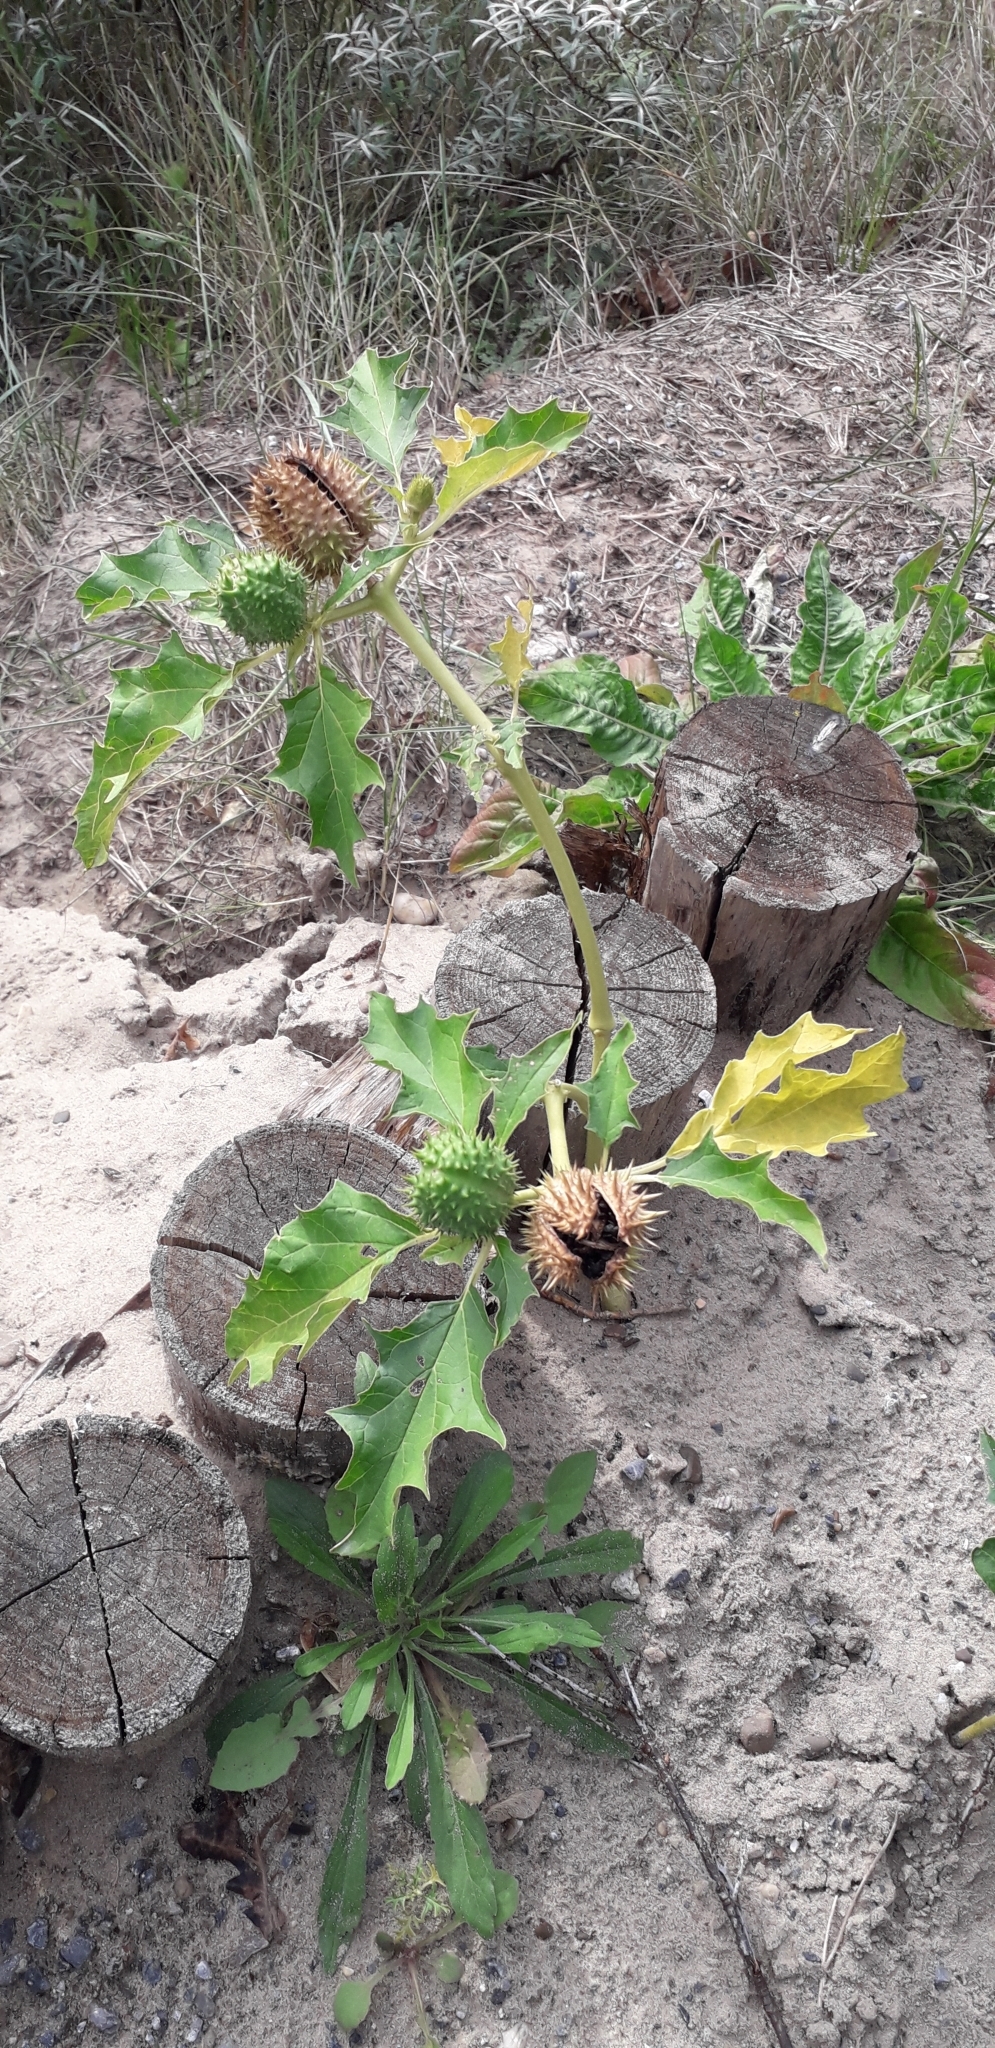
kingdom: Plantae
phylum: Tracheophyta
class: Magnoliopsida
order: Solanales
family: Solanaceae
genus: Datura
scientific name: Datura stramonium
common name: Thorn-apple
